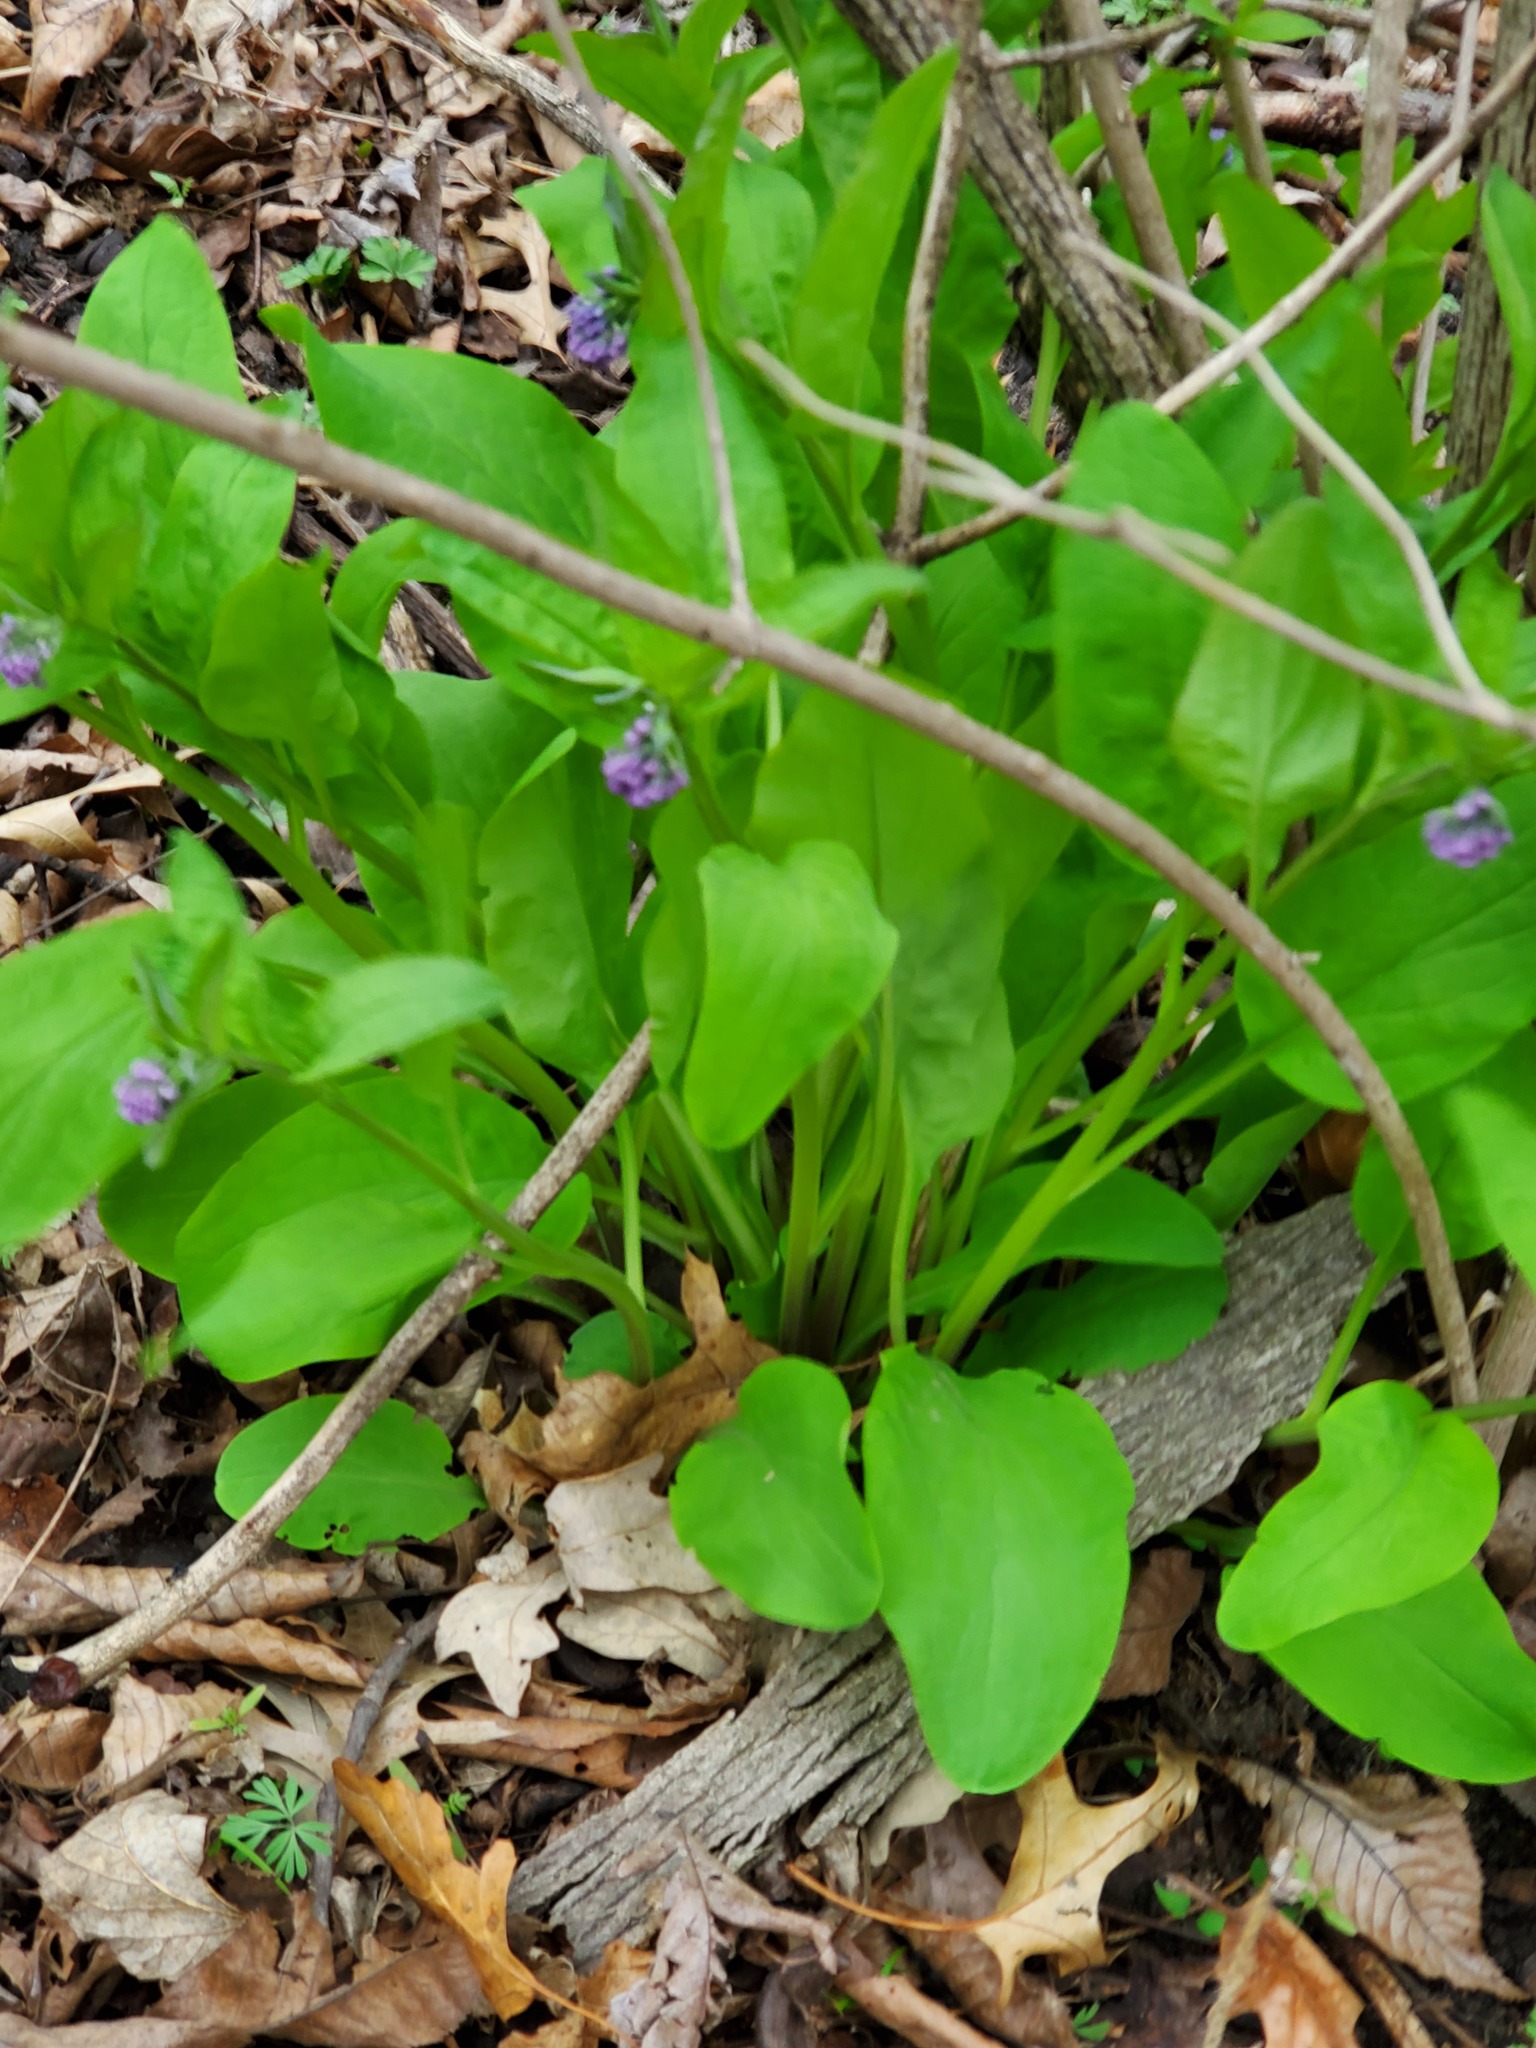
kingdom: Plantae
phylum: Tracheophyta
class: Magnoliopsida
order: Boraginales
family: Boraginaceae
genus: Mertensia
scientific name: Mertensia virginica
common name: Virginia bluebells
